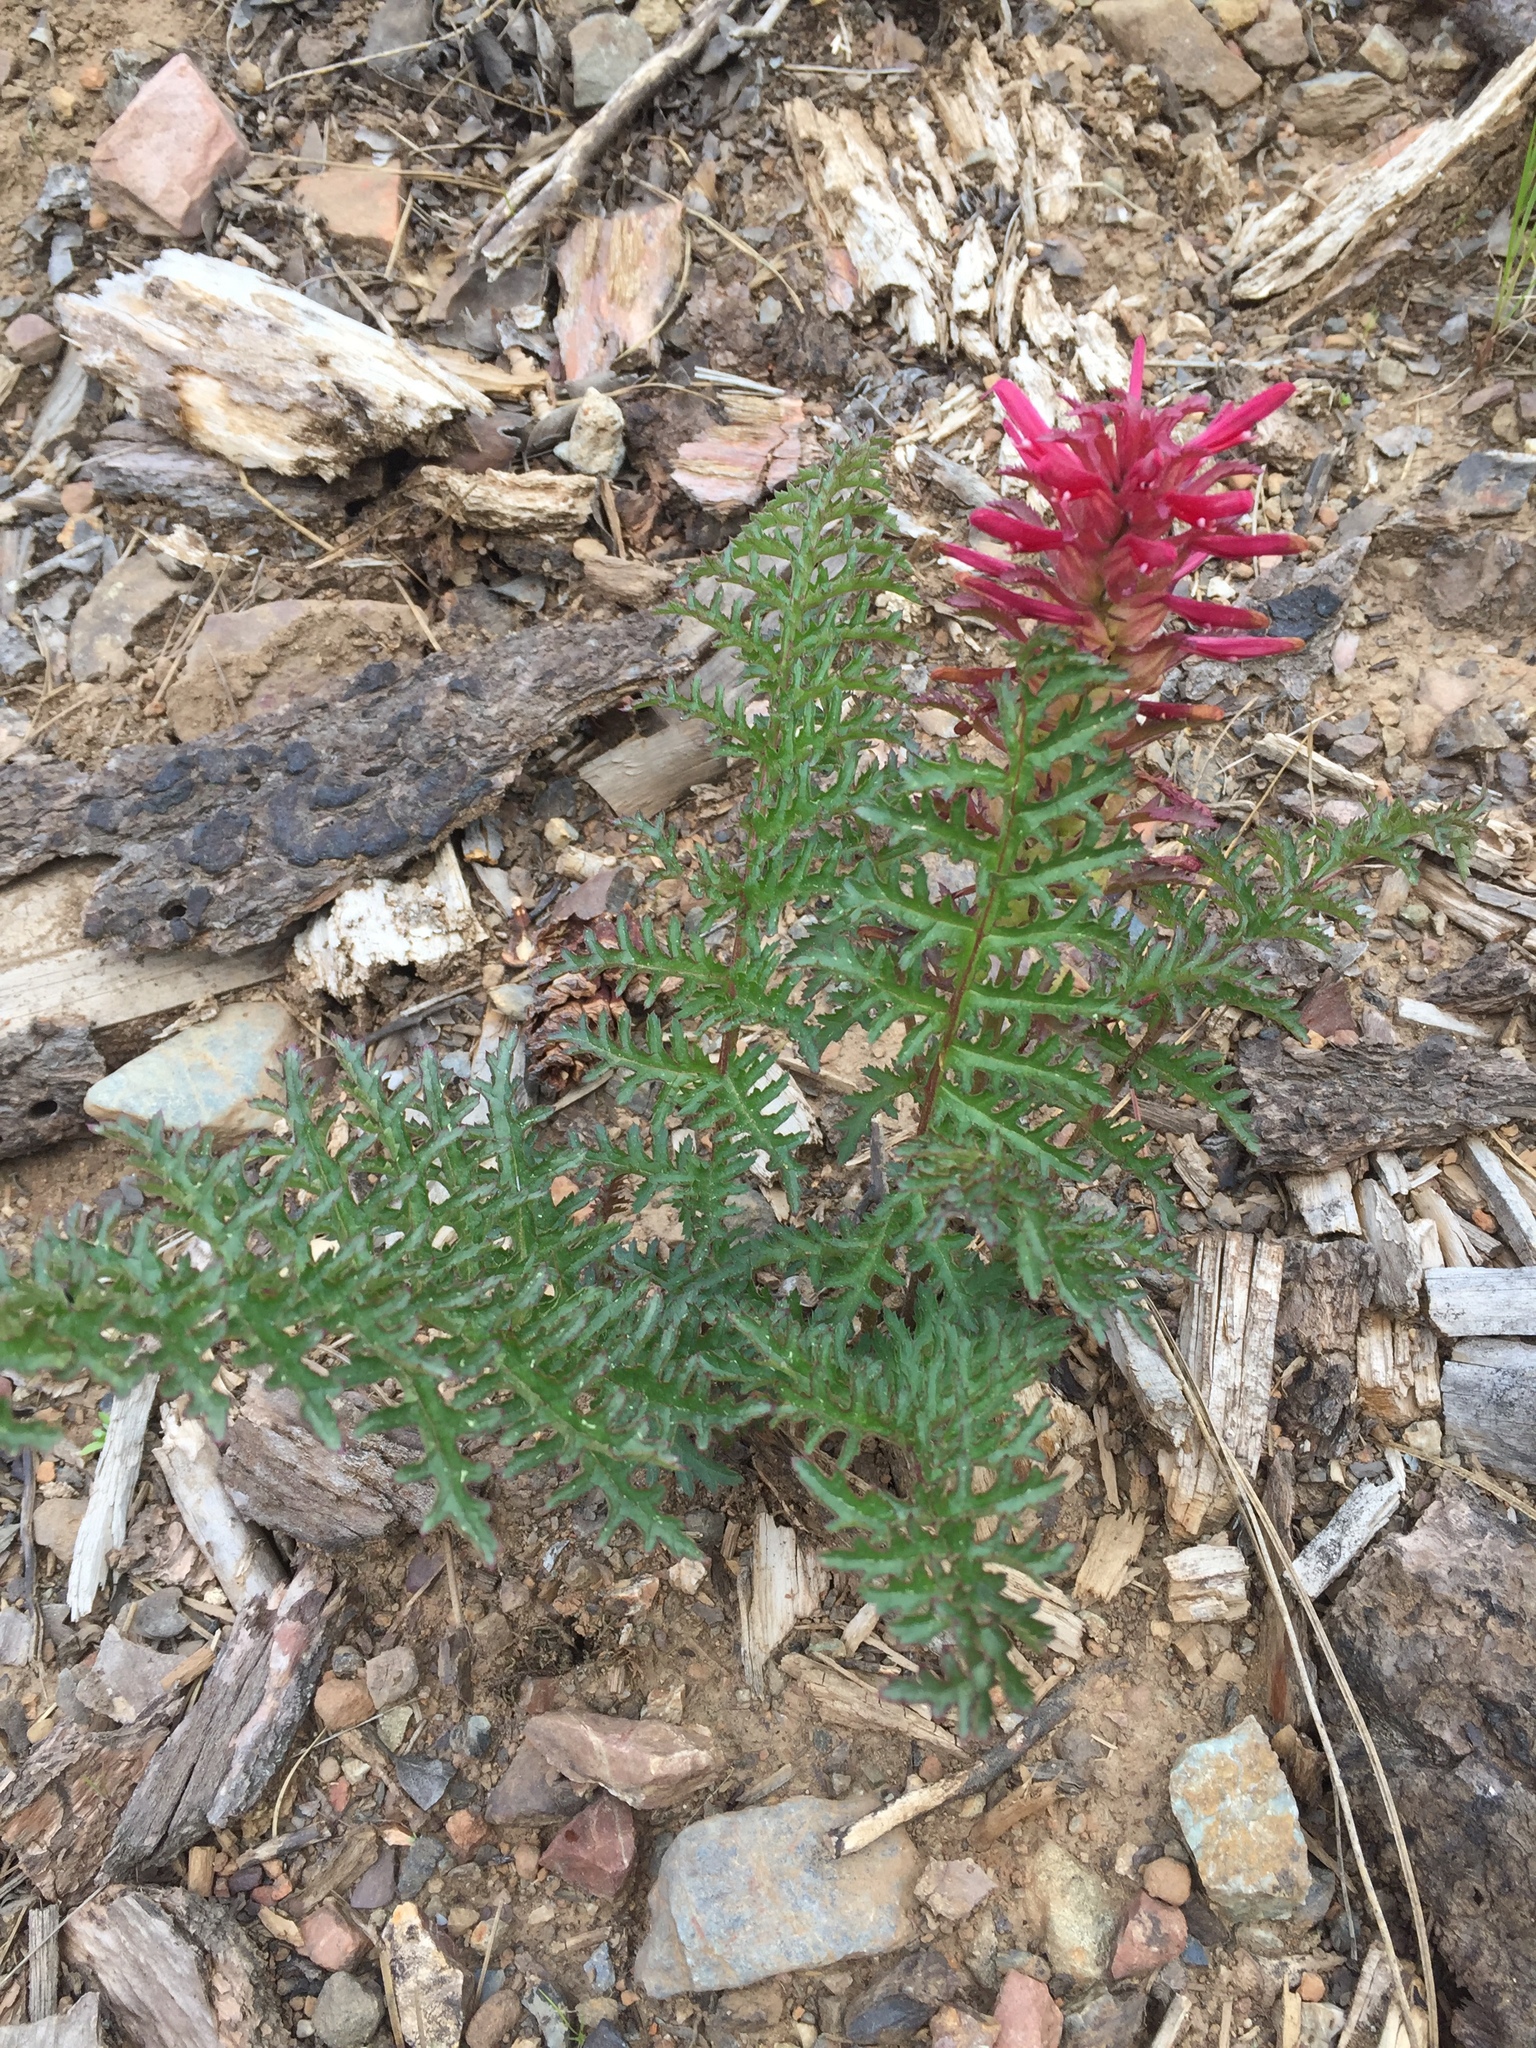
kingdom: Plantae
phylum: Tracheophyta
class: Magnoliopsida
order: Lamiales
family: Orobanchaceae
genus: Pedicularis
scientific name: Pedicularis densiflora
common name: Indian warrior
